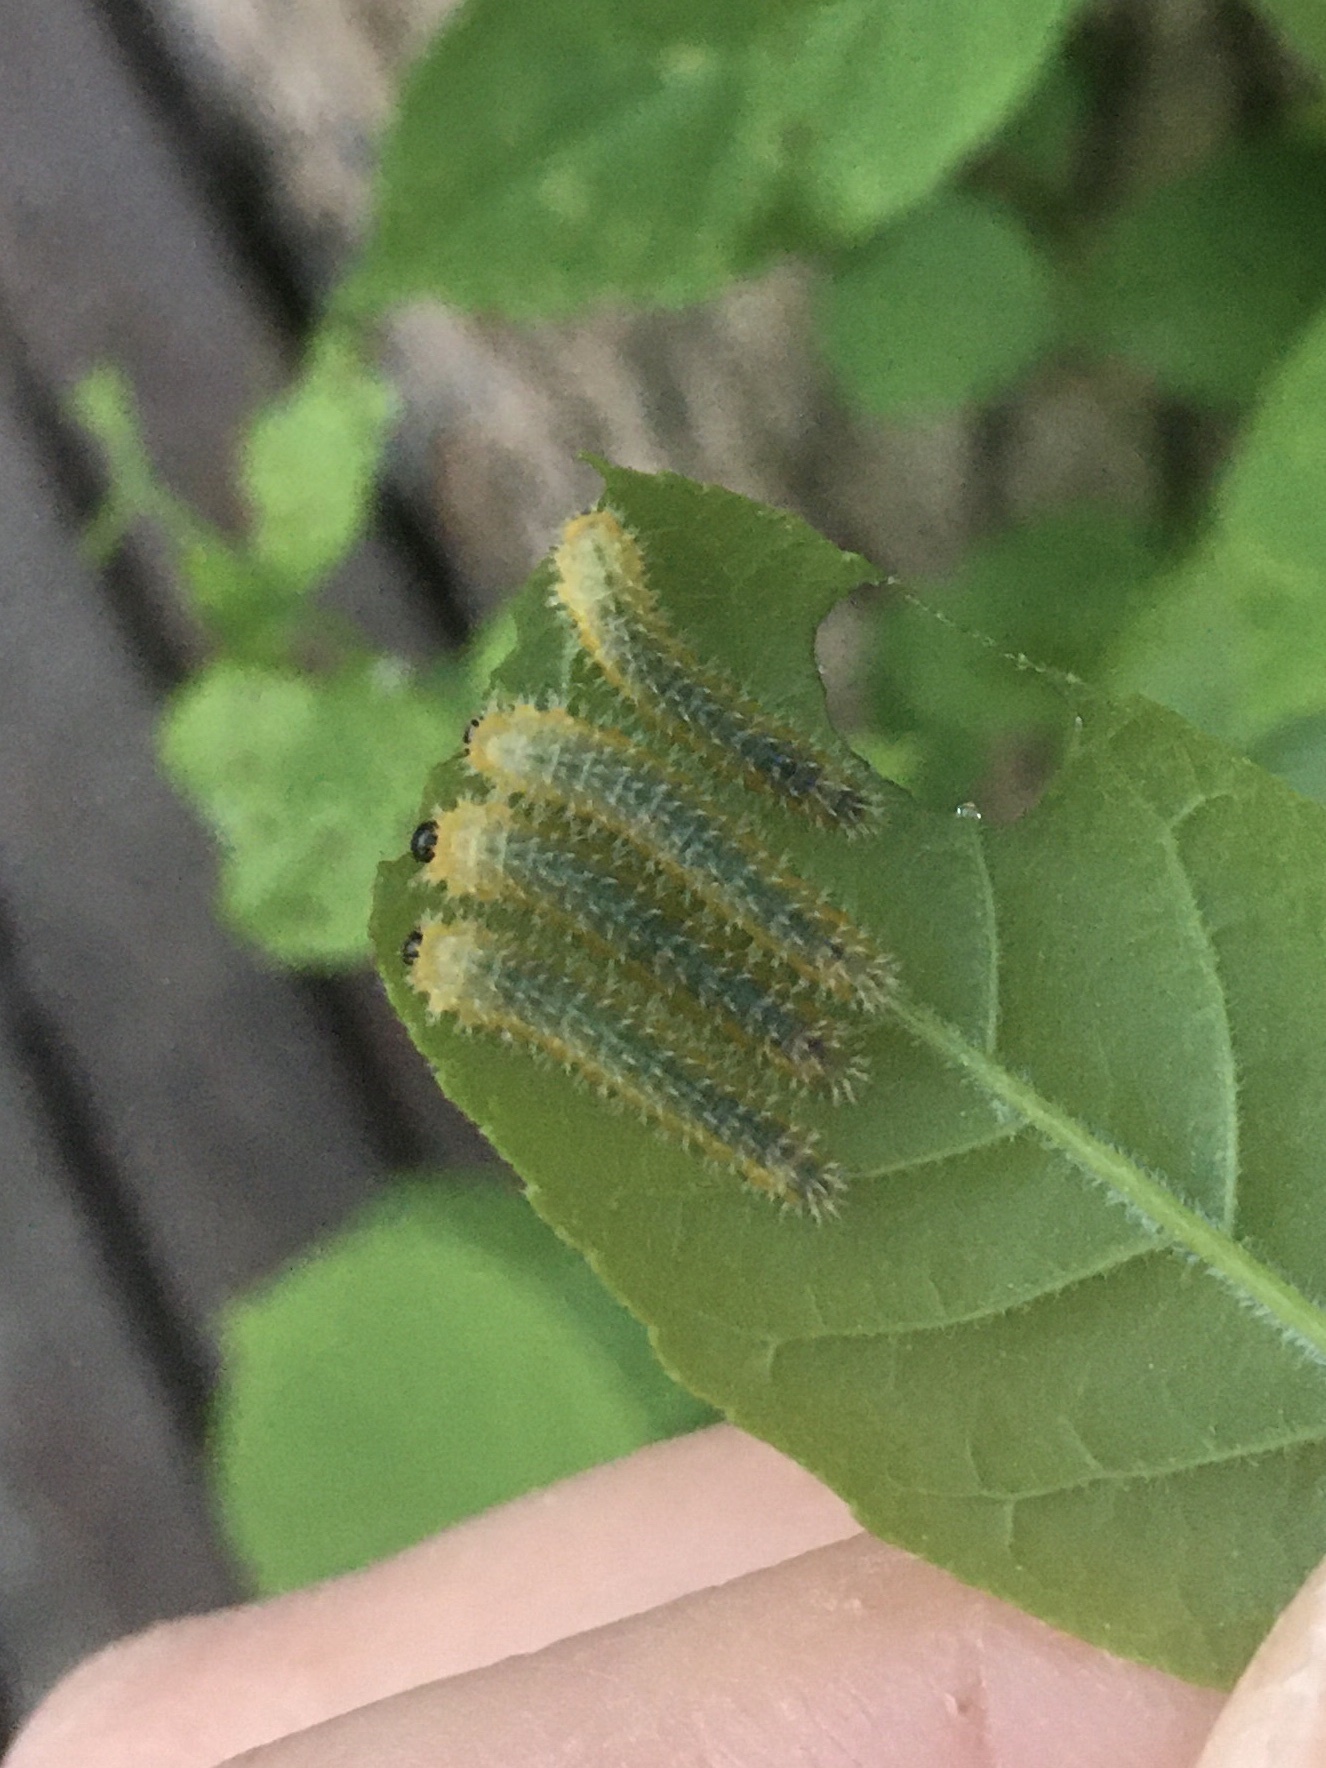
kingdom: Animalia
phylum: Arthropoda
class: Insecta
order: Hymenoptera
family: Tenthredinidae
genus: Eupareophora
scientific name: Eupareophora parca
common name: Sawfly
